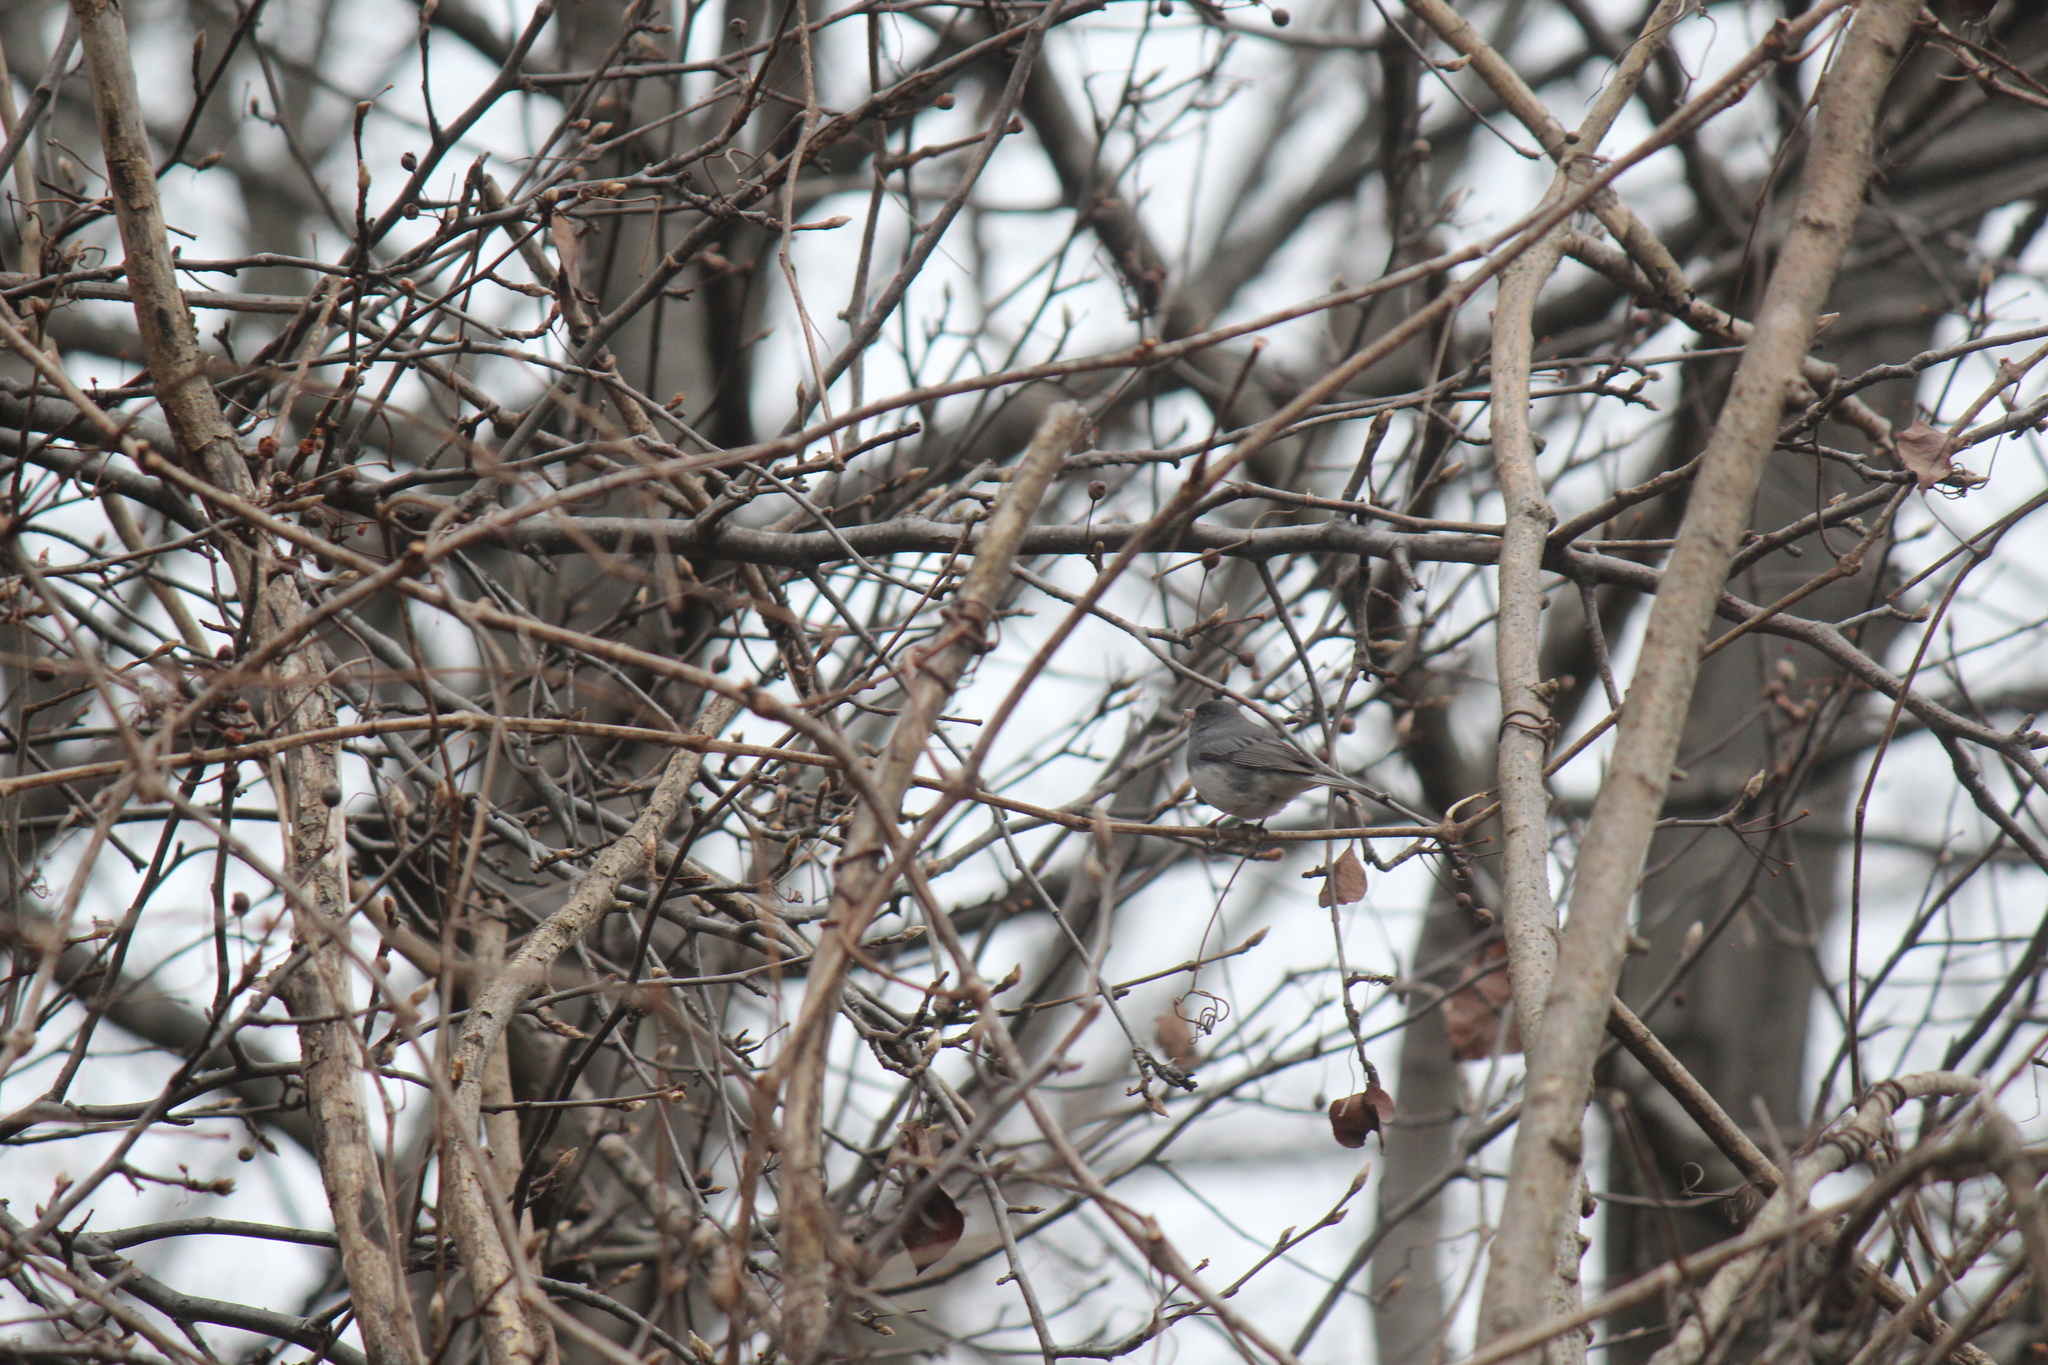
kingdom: Animalia
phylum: Chordata
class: Aves
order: Passeriformes
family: Passerellidae
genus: Junco
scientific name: Junco hyemalis
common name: Dark-eyed junco
